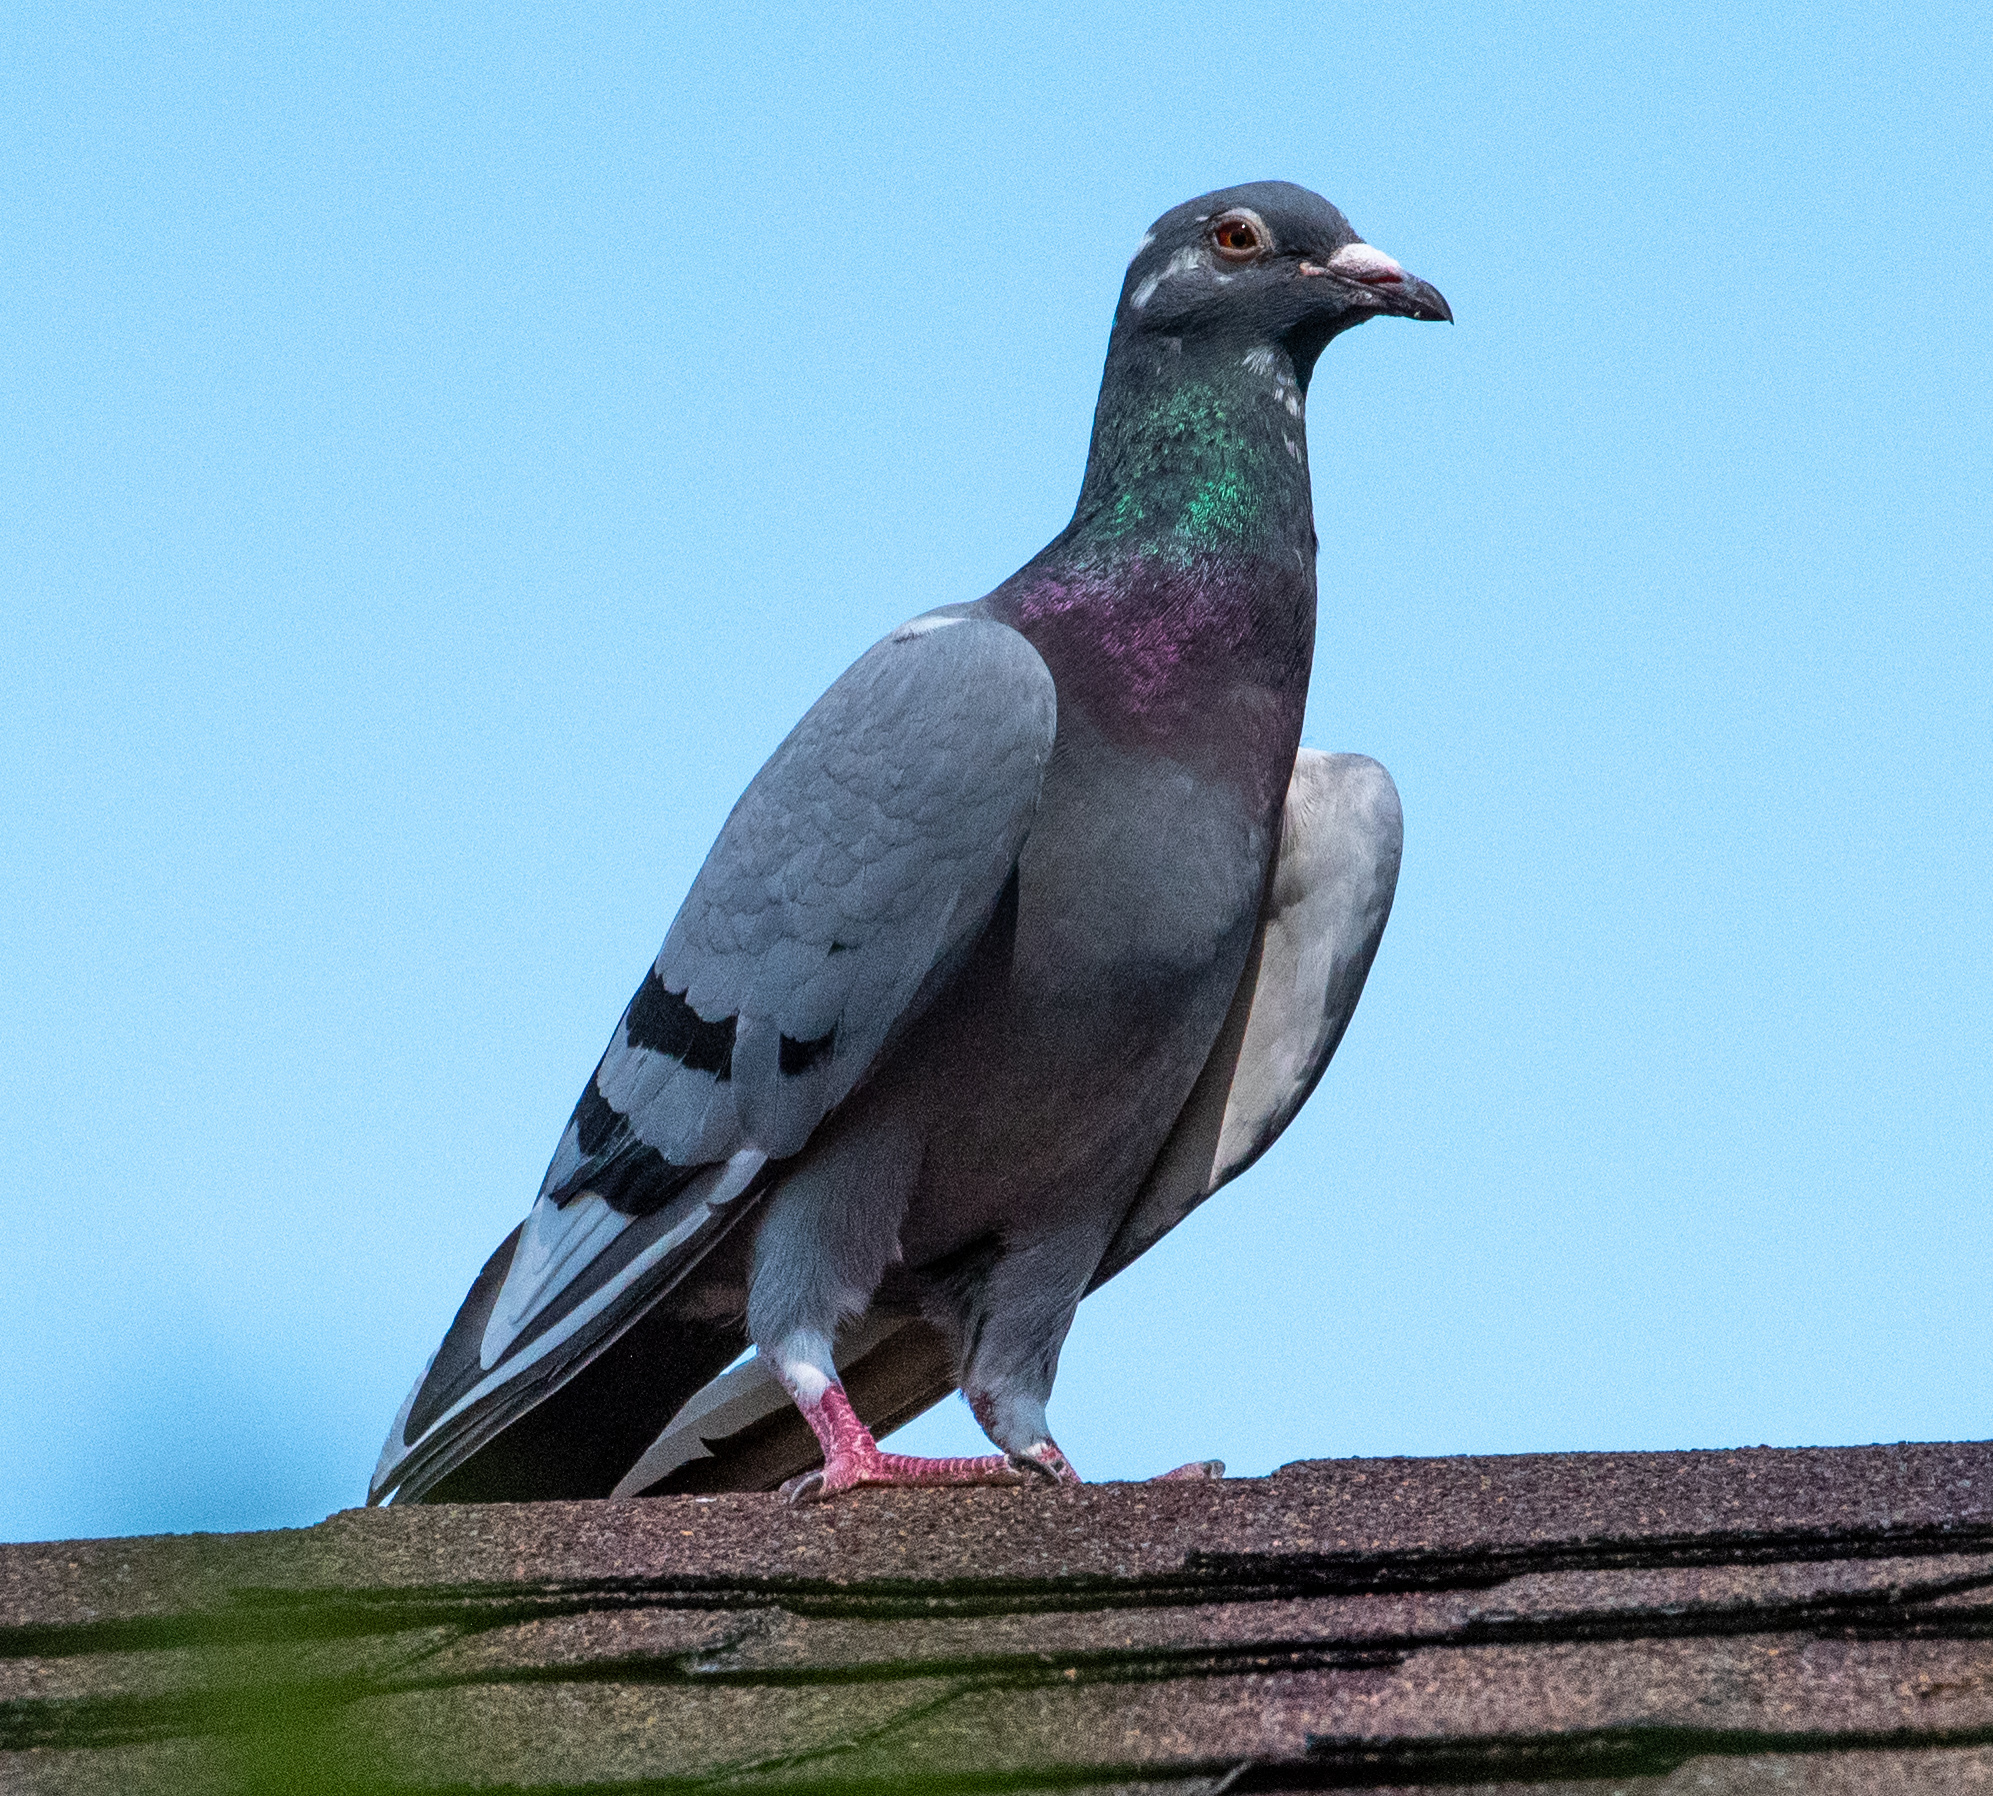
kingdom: Animalia
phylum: Chordata
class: Aves
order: Columbiformes
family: Columbidae
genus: Columba
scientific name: Columba livia
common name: Rock pigeon
